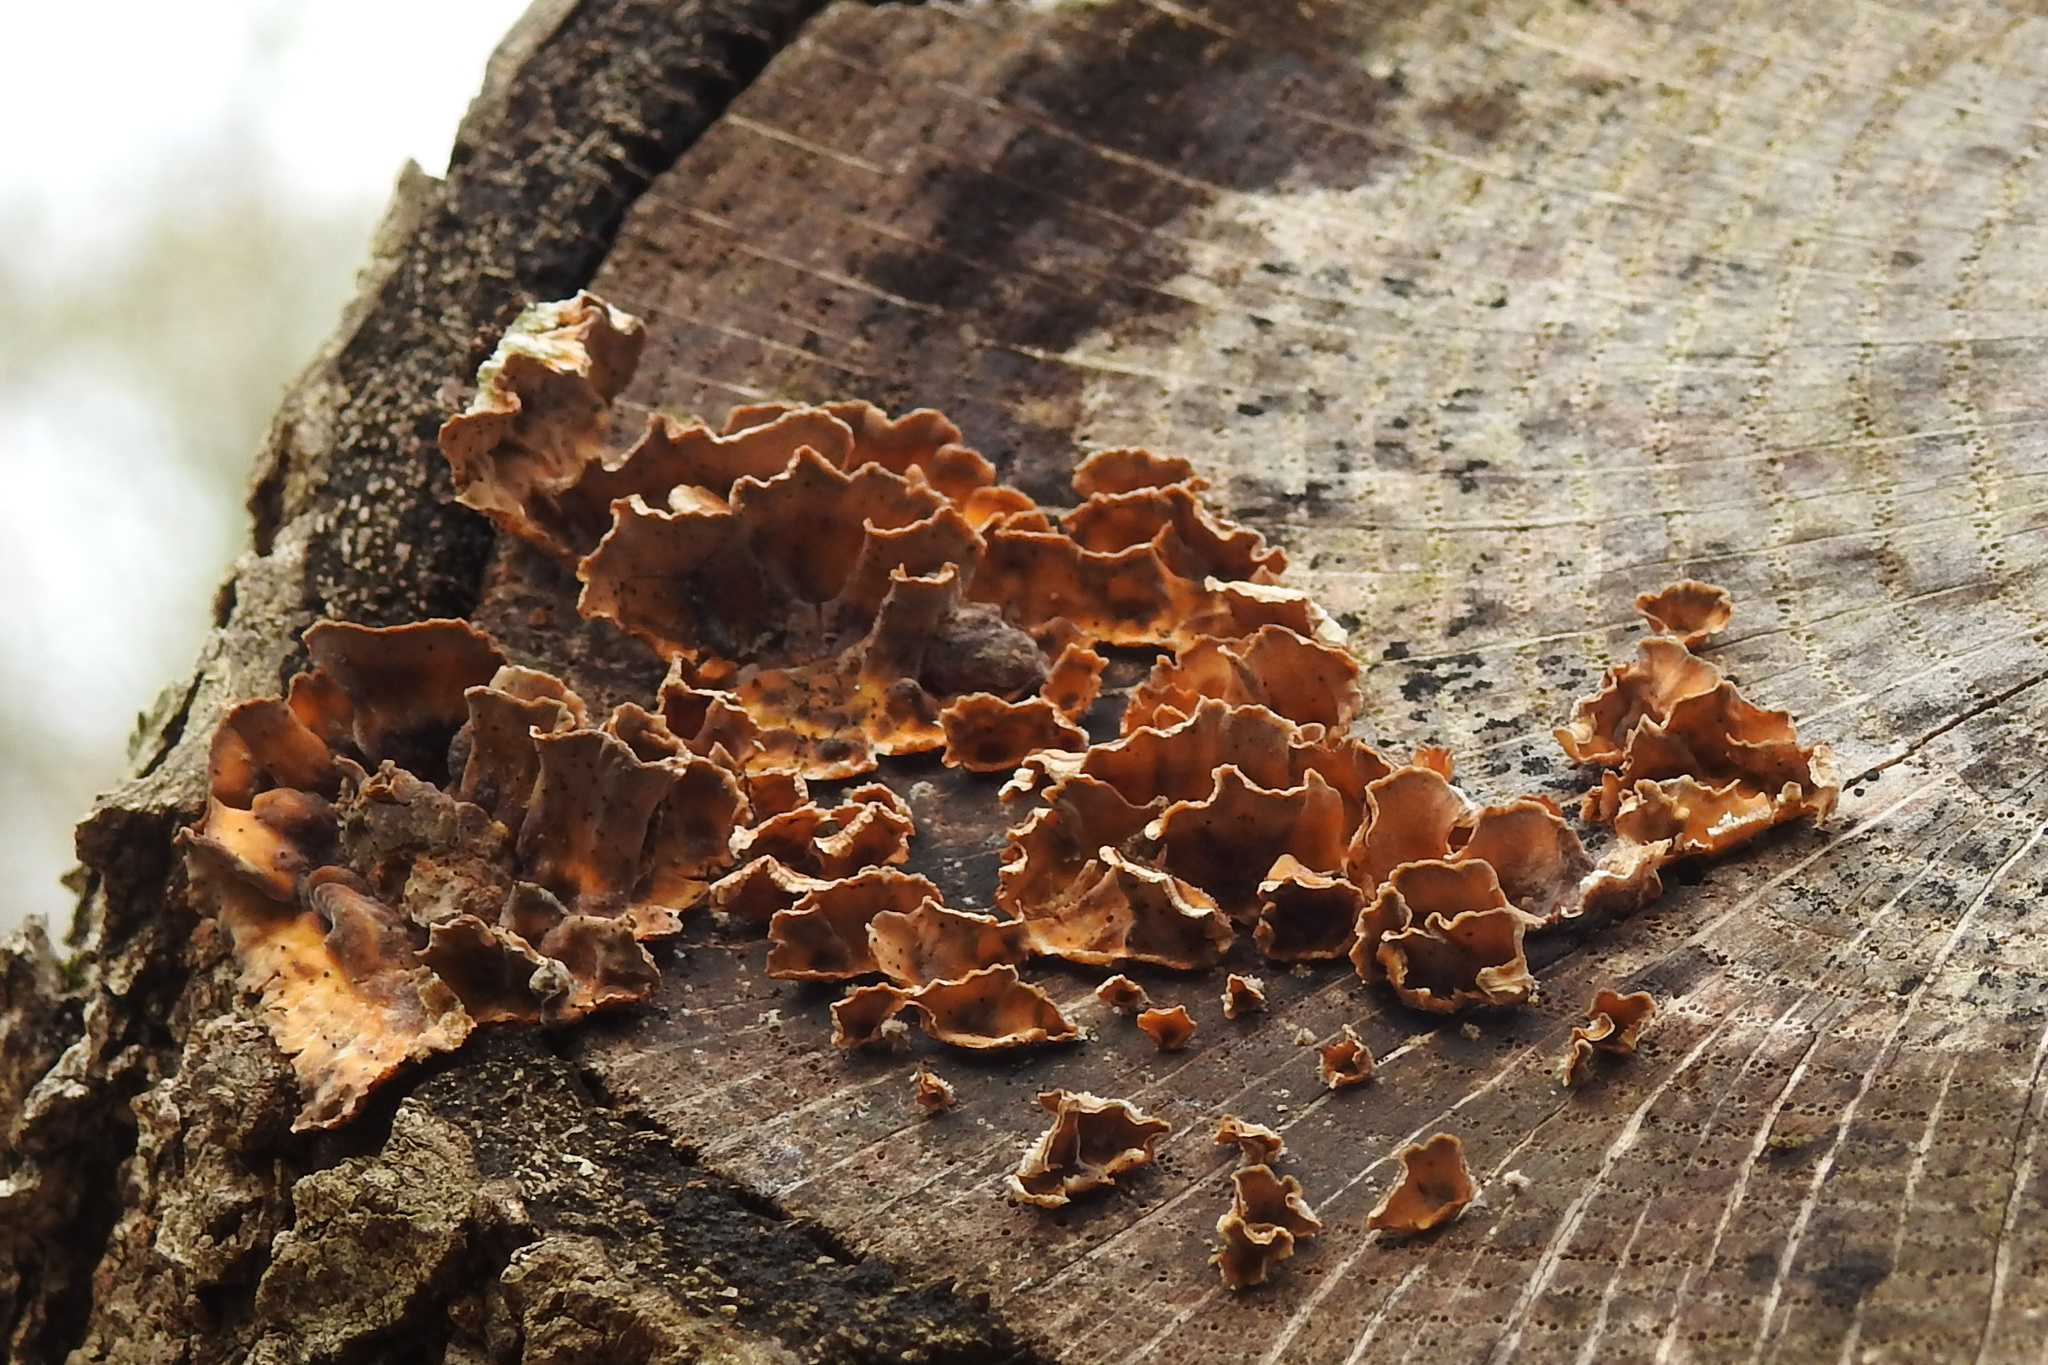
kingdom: Fungi
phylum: Basidiomycota
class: Agaricomycetes
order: Russulales
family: Stereaceae
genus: Stereum
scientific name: Stereum complicatum
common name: Crowded parchment
